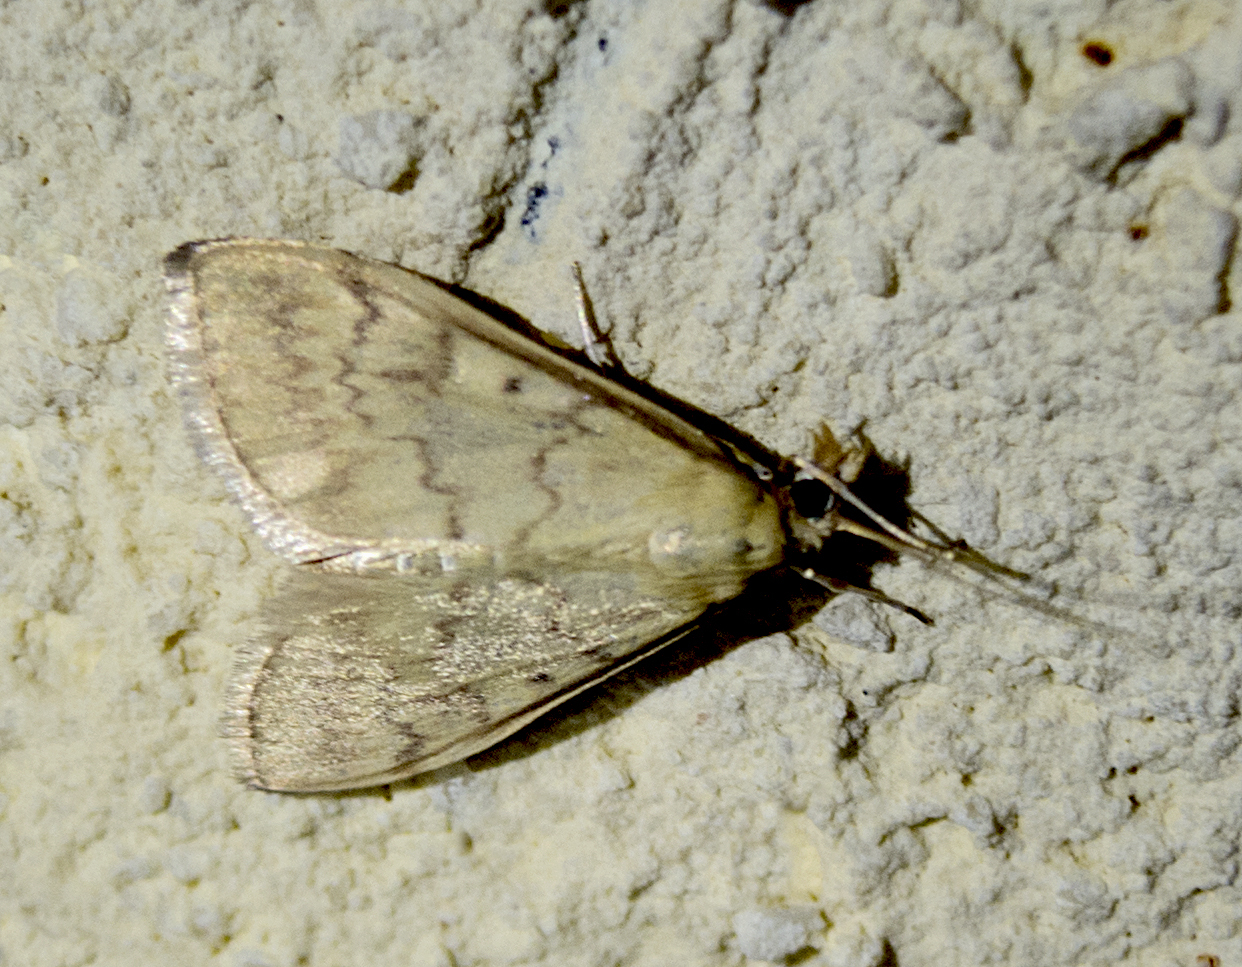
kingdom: Animalia
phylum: Arthropoda
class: Insecta
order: Lepidoptera
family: Crambidae
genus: Ostrinia
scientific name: Ostrinia nubilalis
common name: European corn borer
